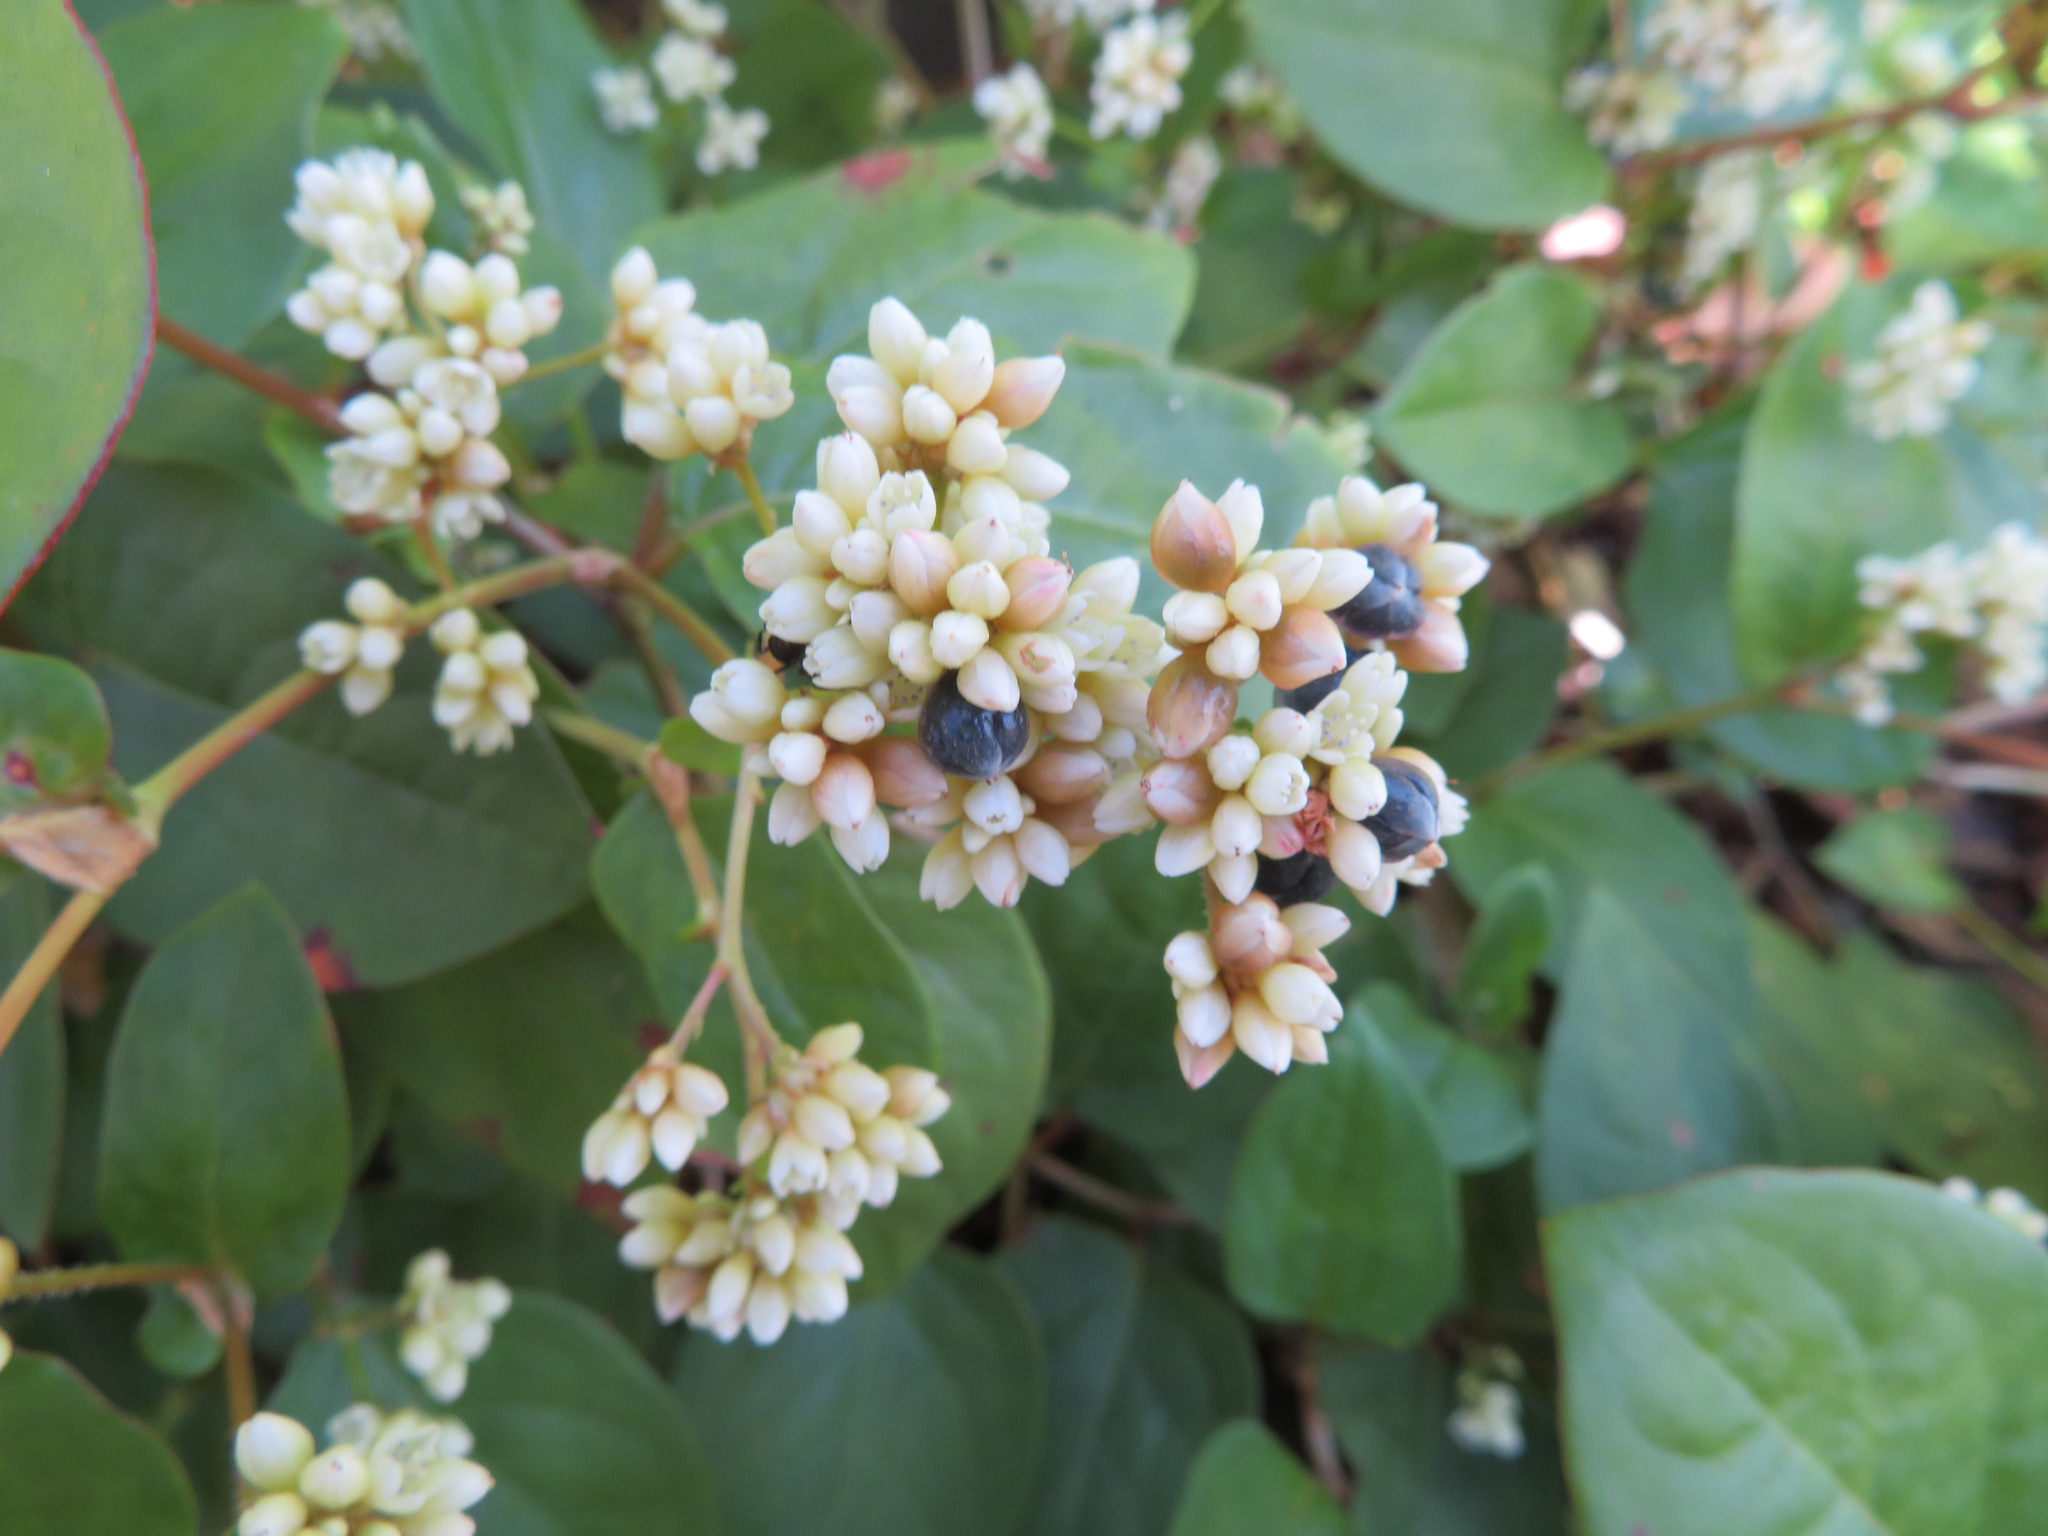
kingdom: Plantae
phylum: Tracheophyta
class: Magnoliopsida
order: Caryophyllales
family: Polygonaceae
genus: Persicaria
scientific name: Persicaria chinensis
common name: Chinese knotweed
